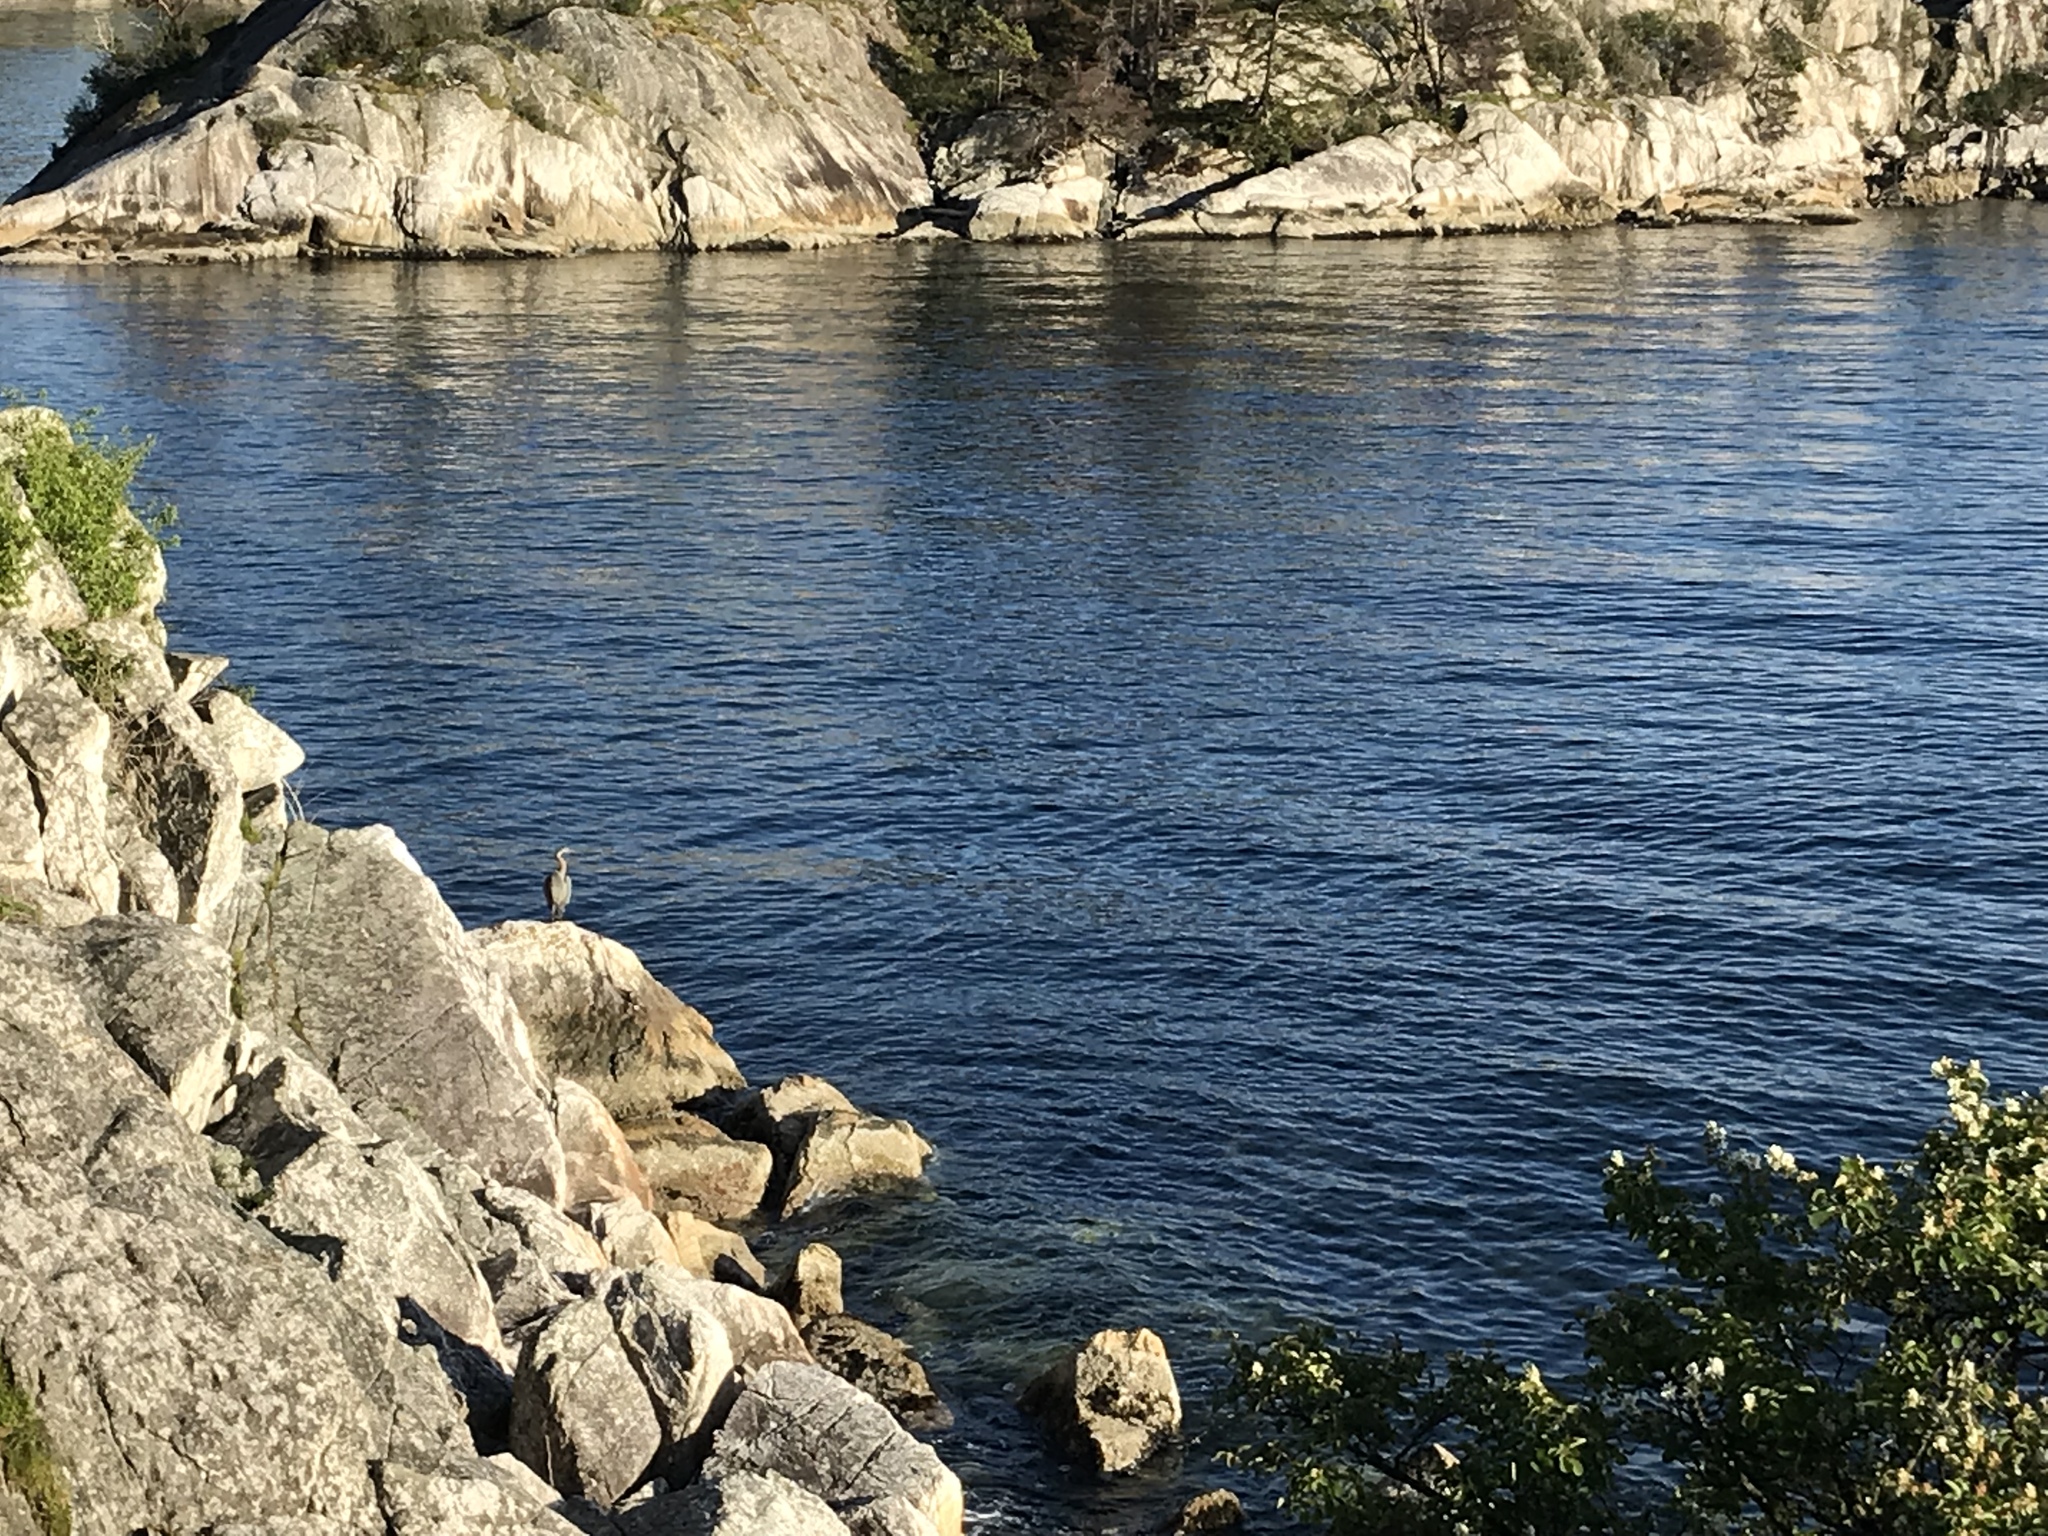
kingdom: Animalia
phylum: Chordata
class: Aves
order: Pelecaniformes
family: Ardeidae
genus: Ardea
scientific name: Ardea herodias
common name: Great blue heron
